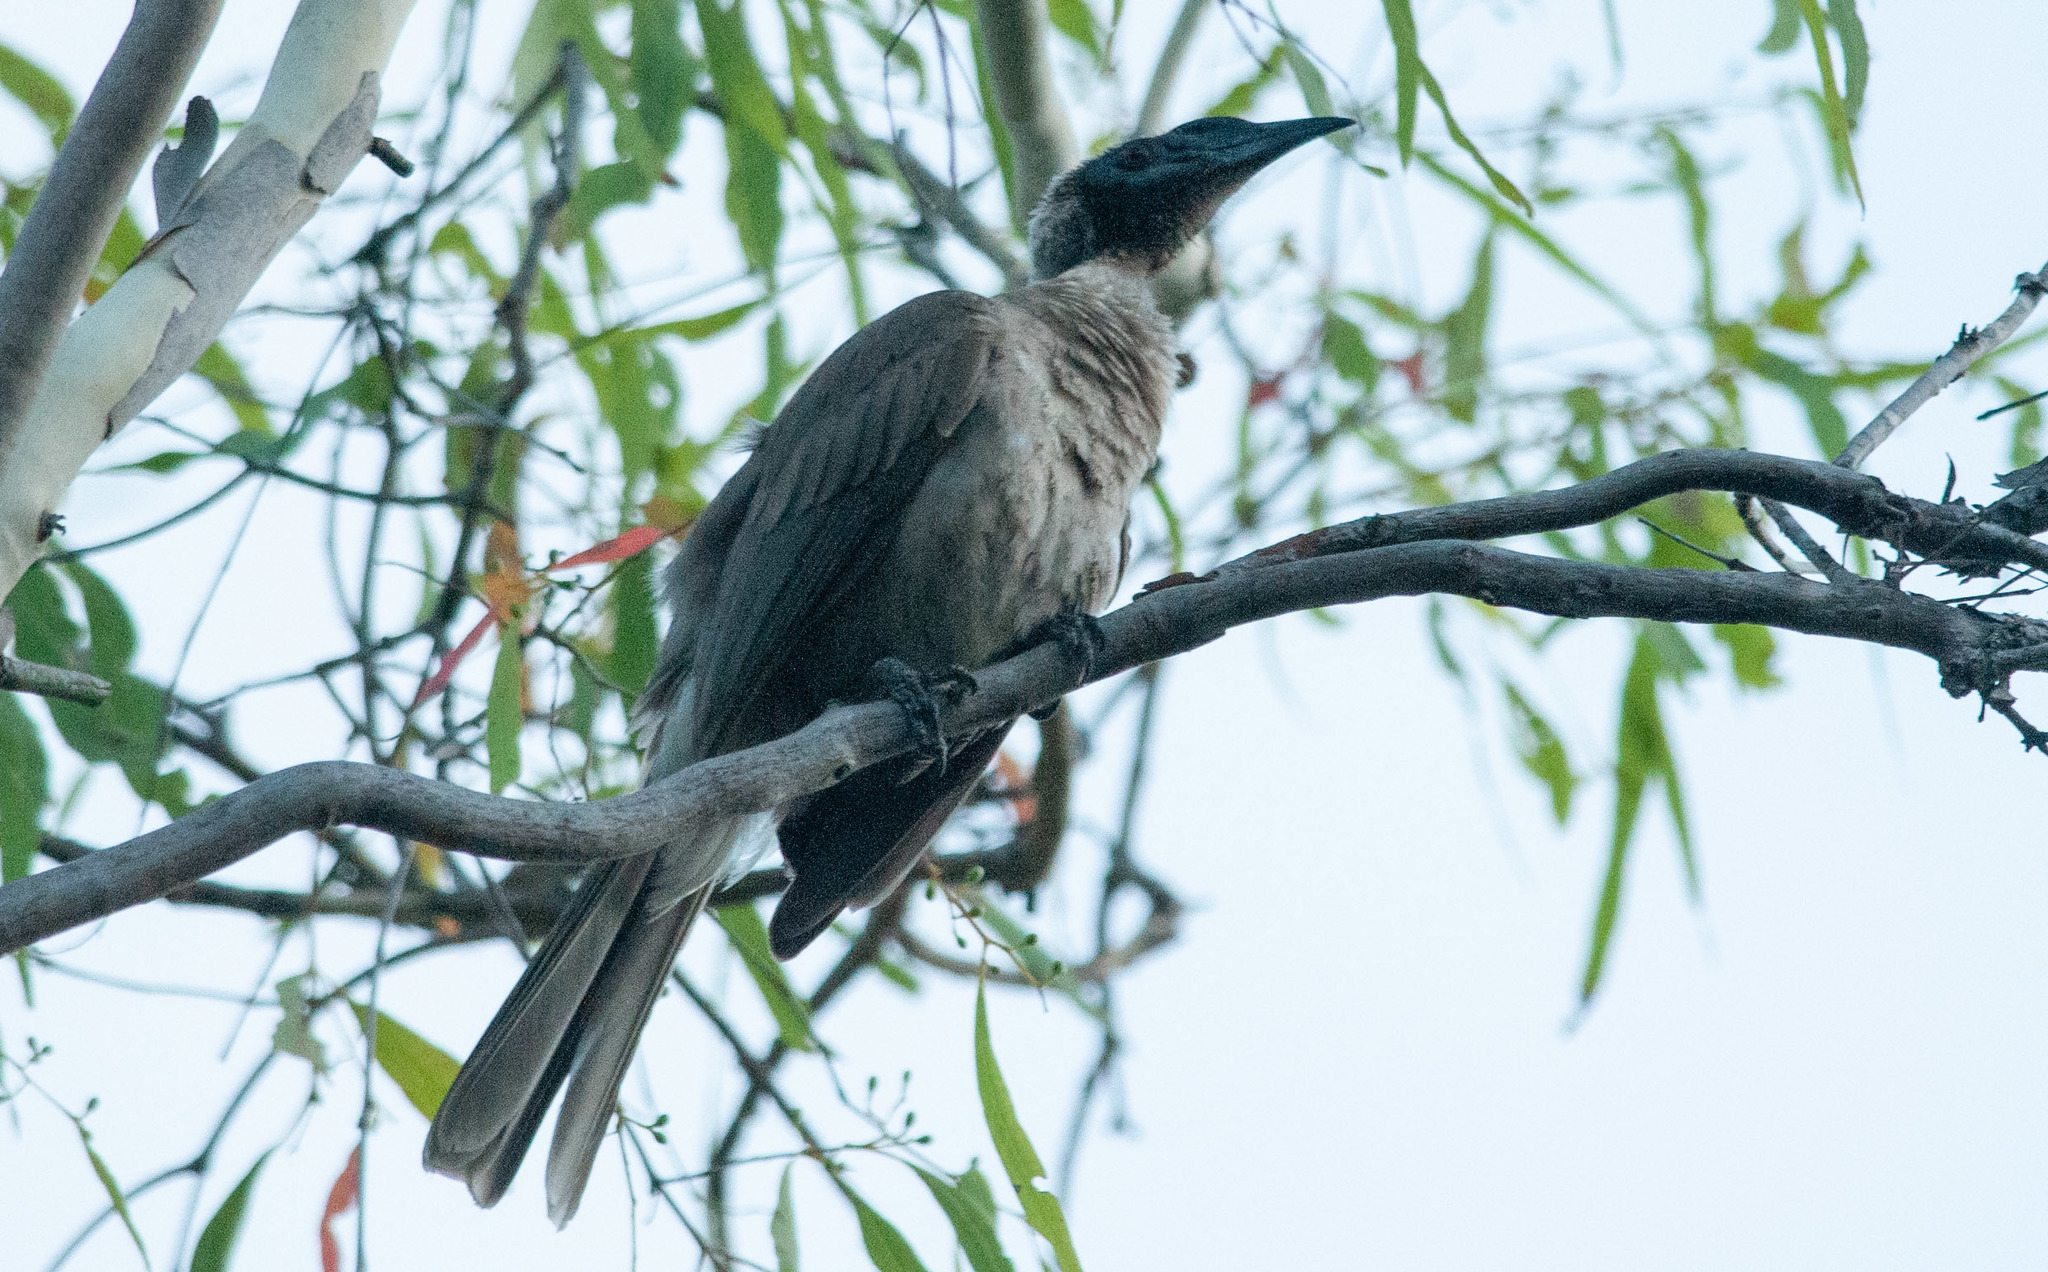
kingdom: Animalia
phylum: Chordata
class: Aves
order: Passeriformes
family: Meliphagidae
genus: Philemon
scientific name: Philemon buceroides
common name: Helmeted friarbird
